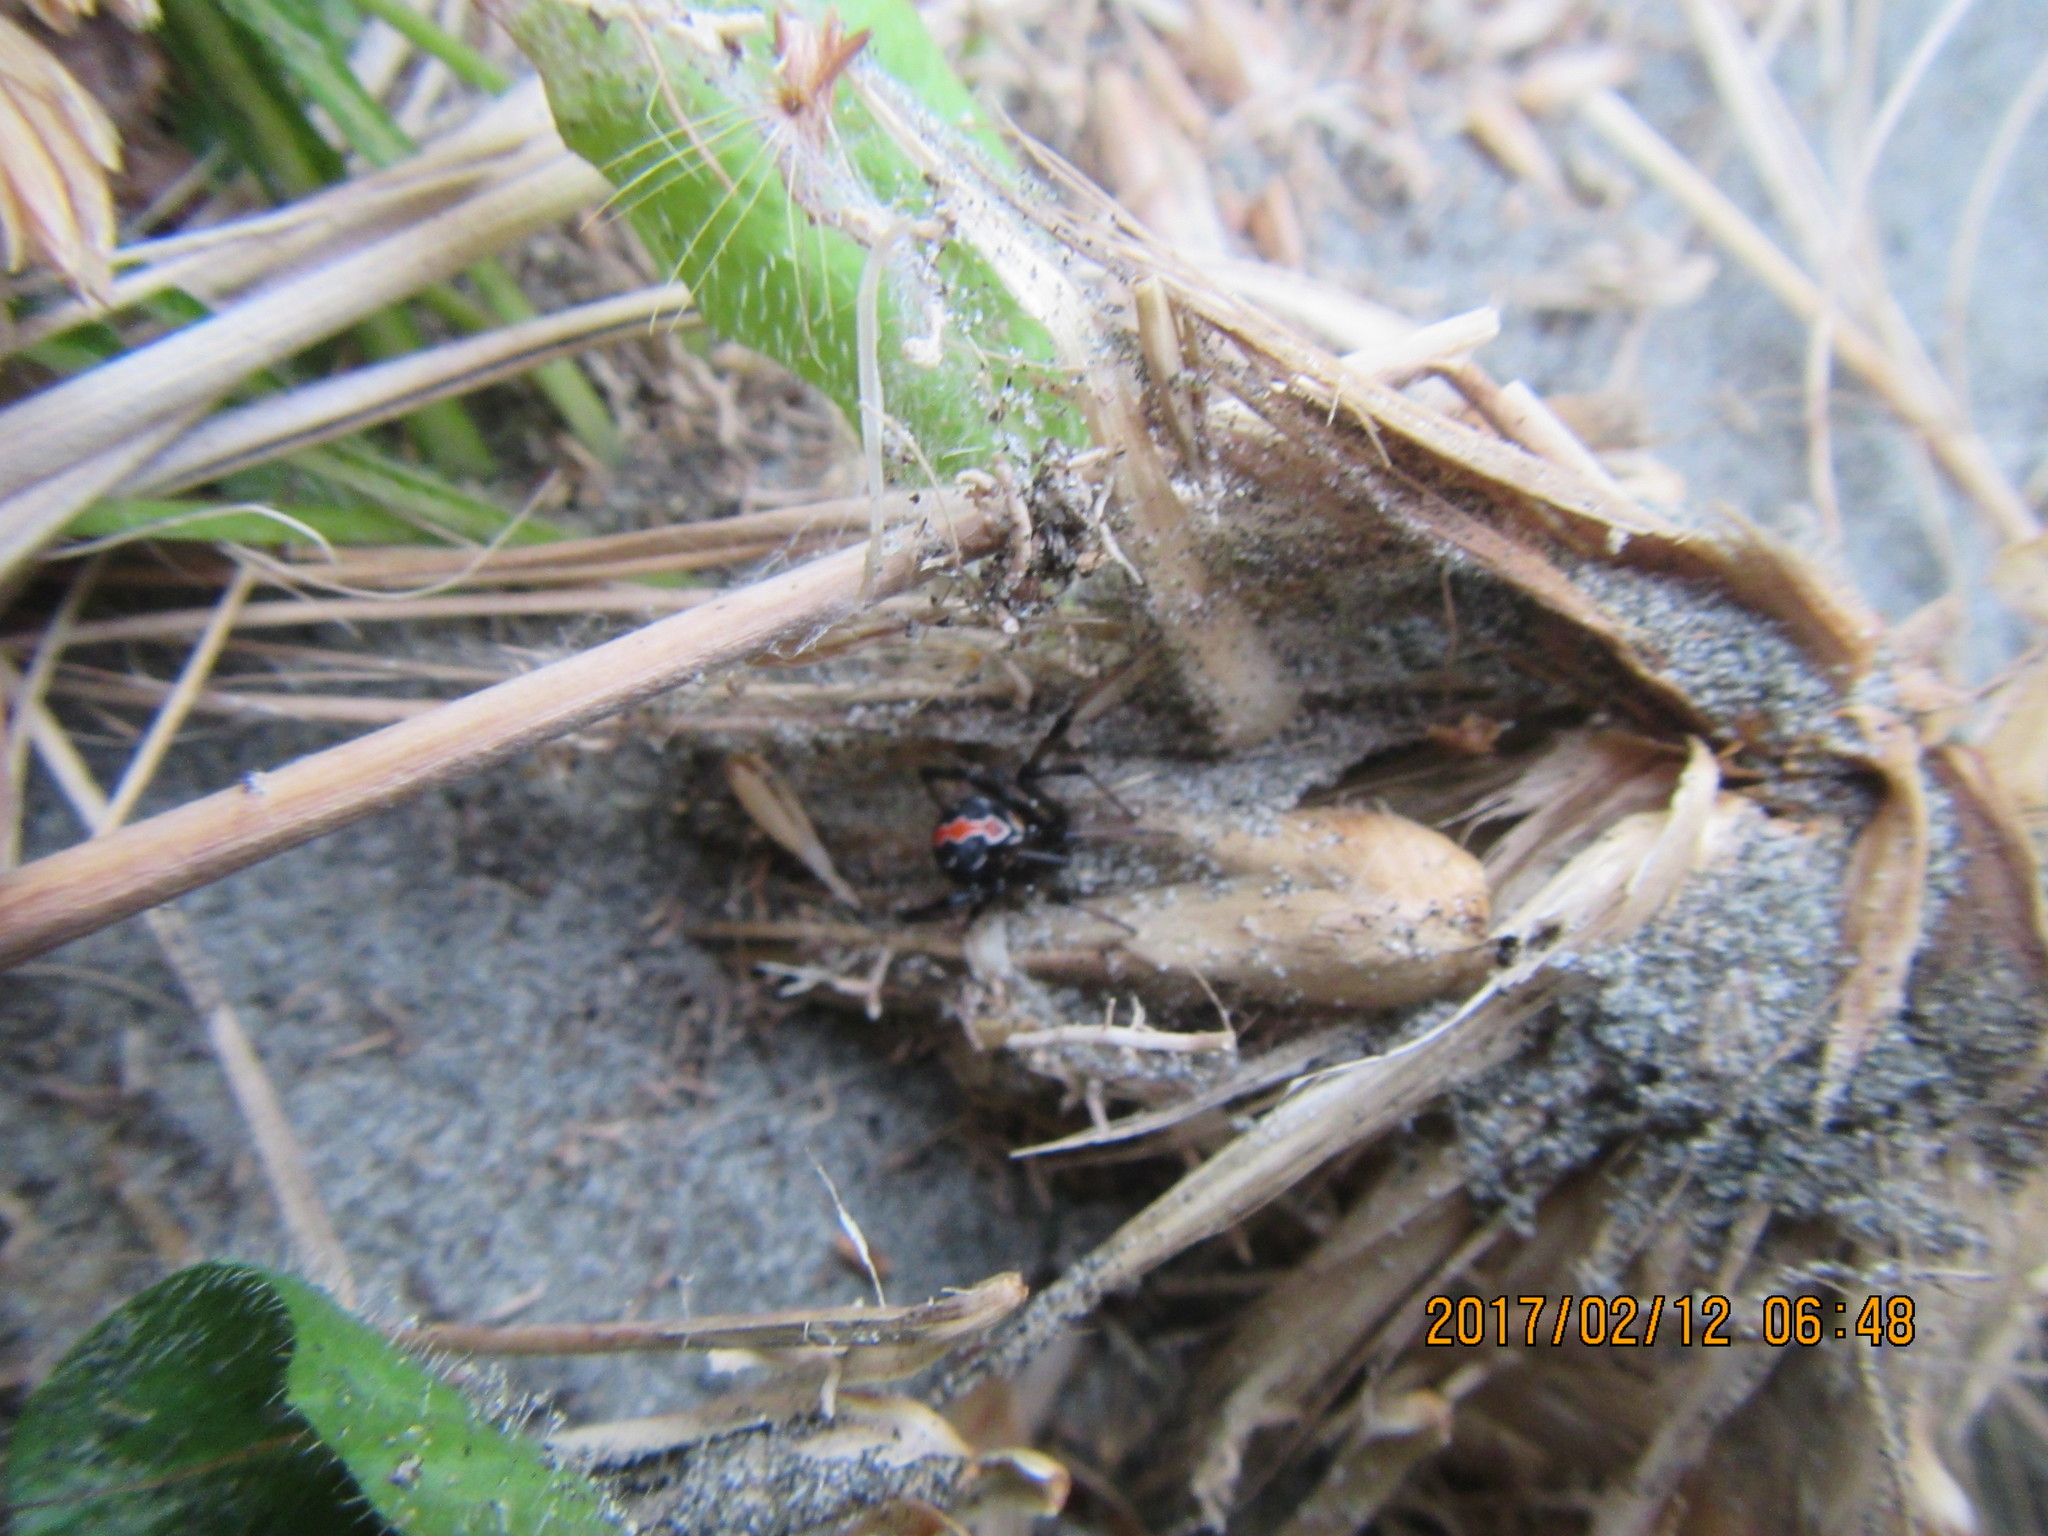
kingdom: Animalia
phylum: Arthropoda
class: Arachnida
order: Araneae
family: Theridiidae
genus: Latrodectus
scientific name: Latrodectus katipo
